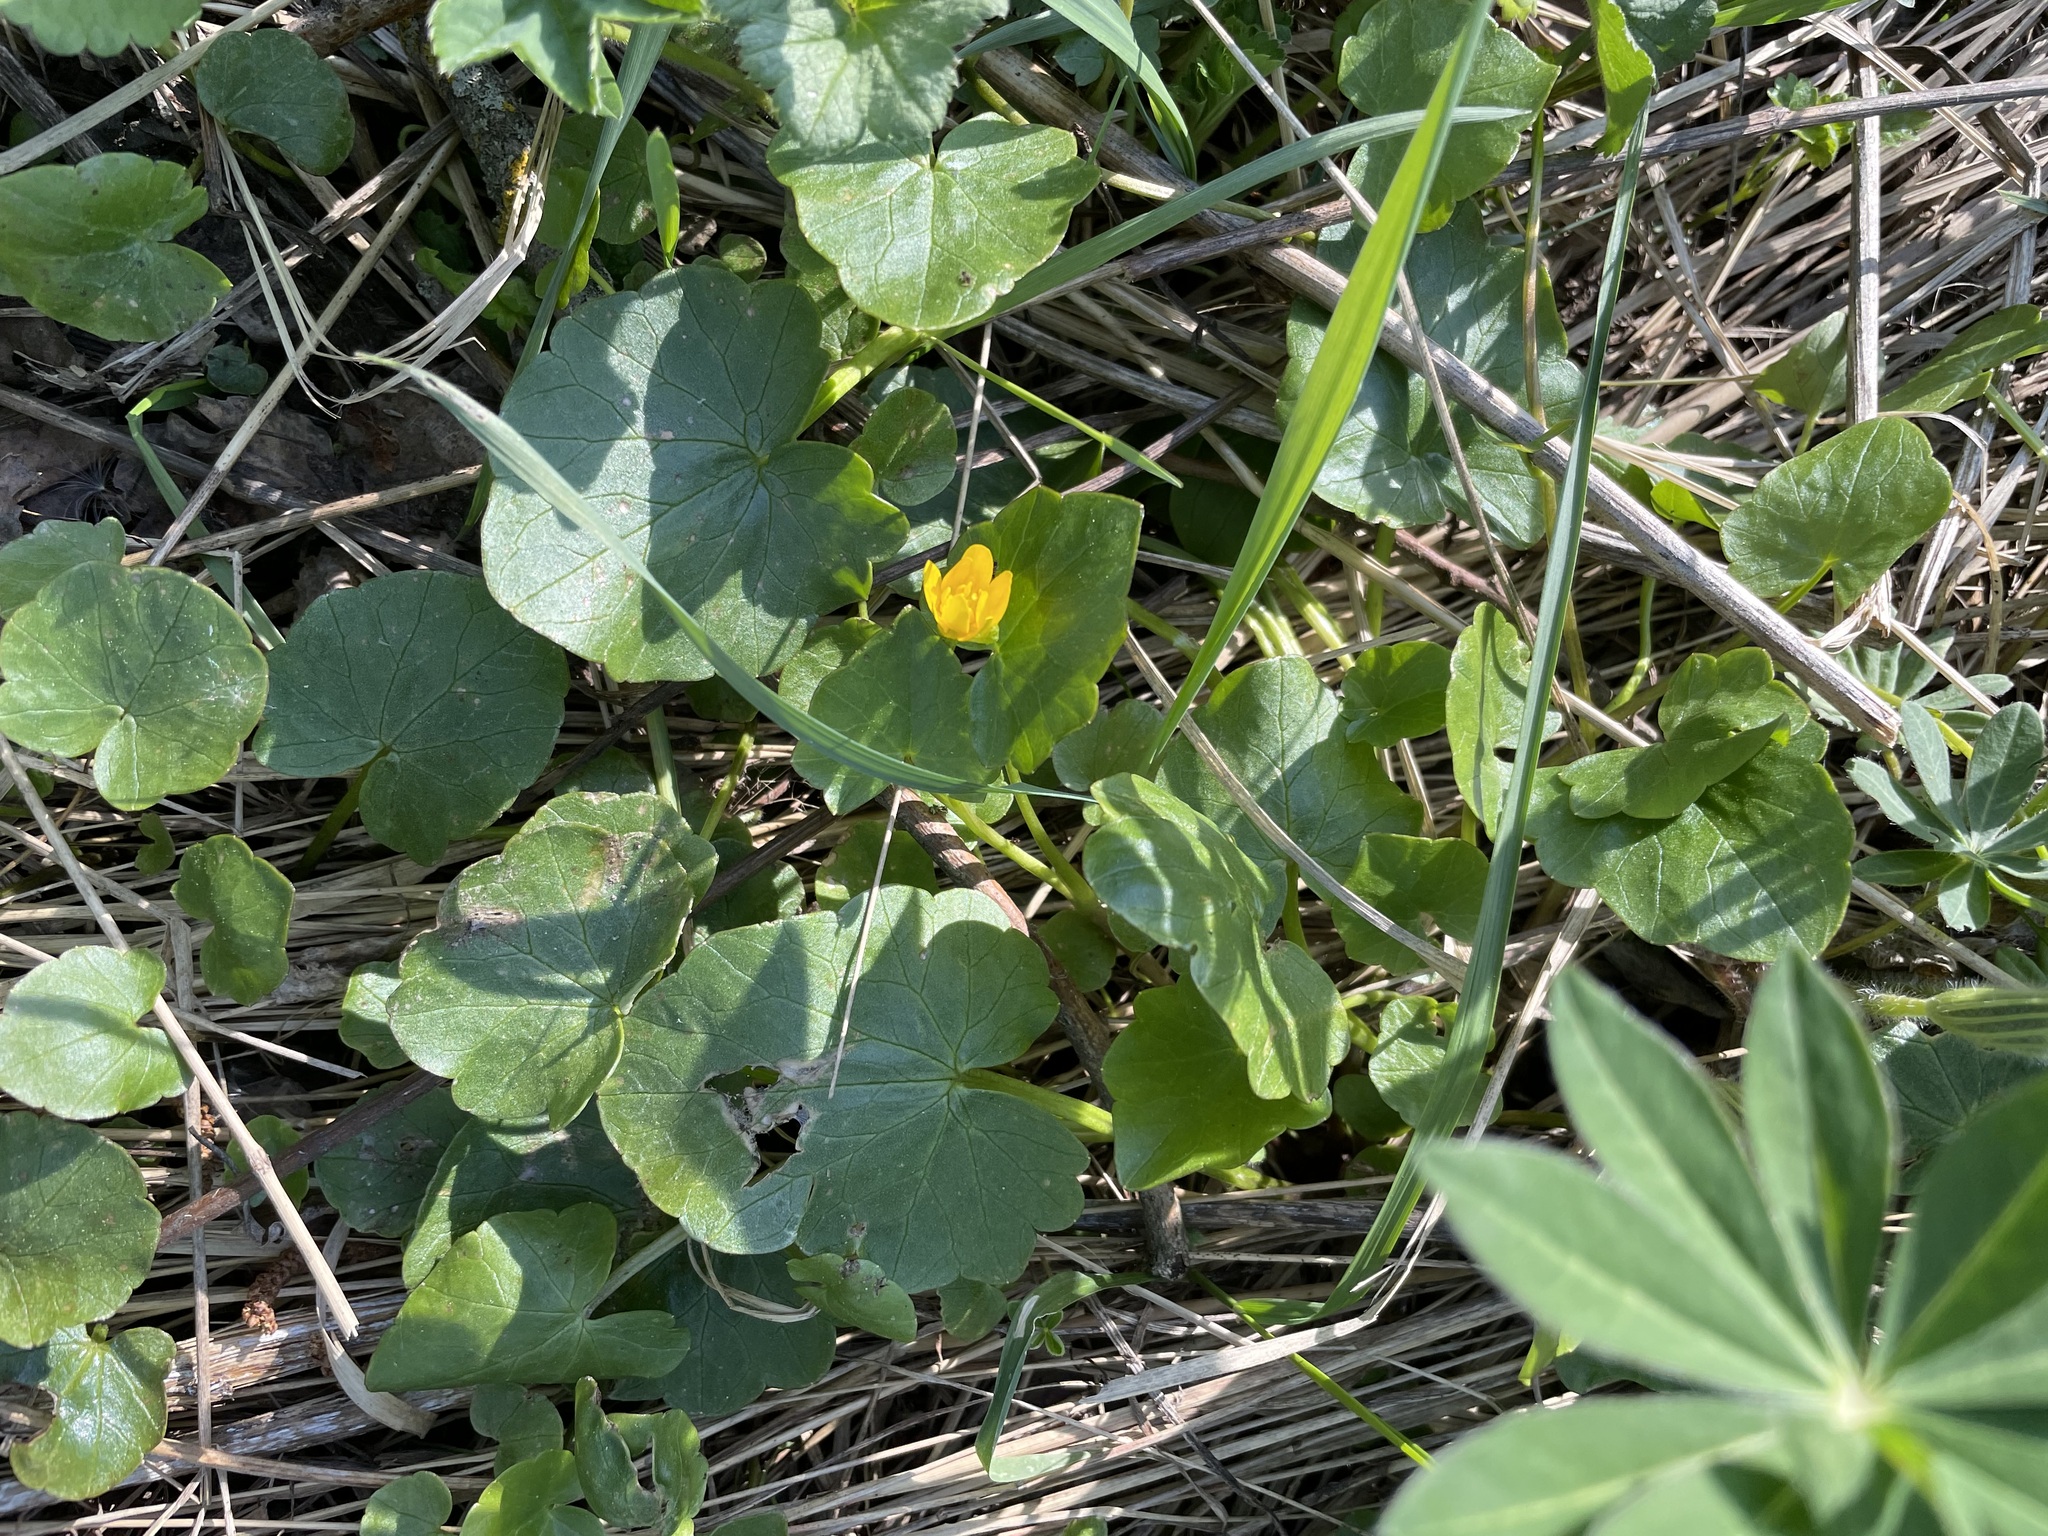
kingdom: Plantae
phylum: Tracheophyta
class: Magnoliopsida
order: Ranunculales
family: Ranunculaceae
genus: Ficaria
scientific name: Ficaria verna
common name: Lesser celandine
